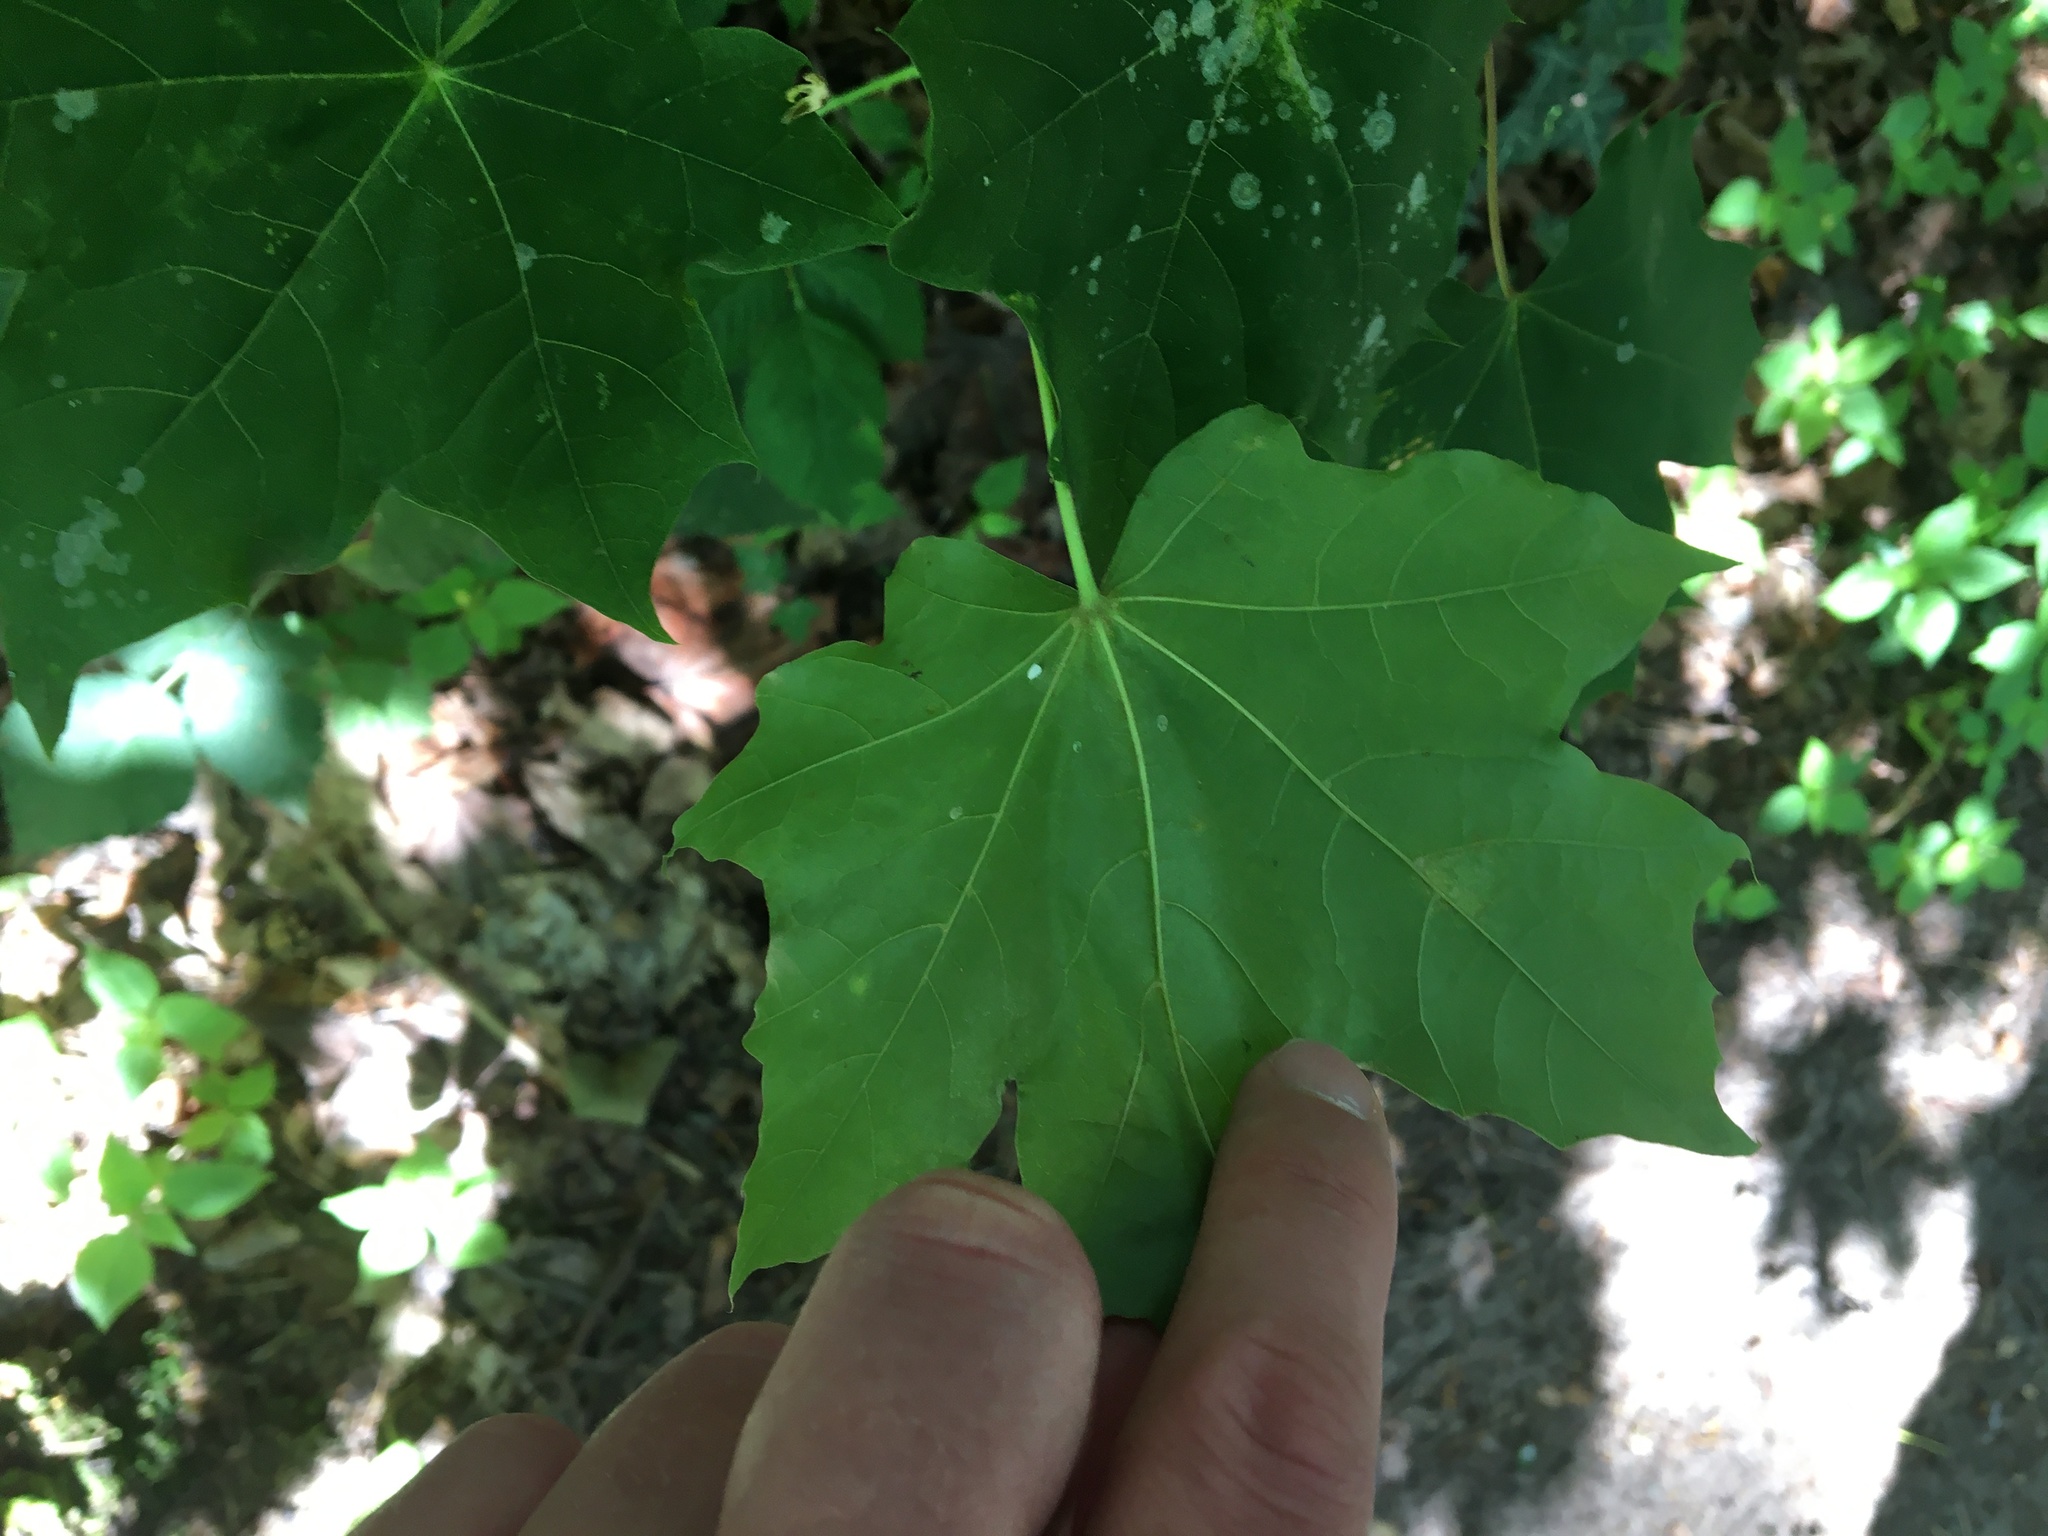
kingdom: Plantae
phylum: Tracheophyta
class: Magnoliopsida
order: Sapindales
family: Sapindaceae
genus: Acer
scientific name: Acer platanoides
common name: Norway maple
